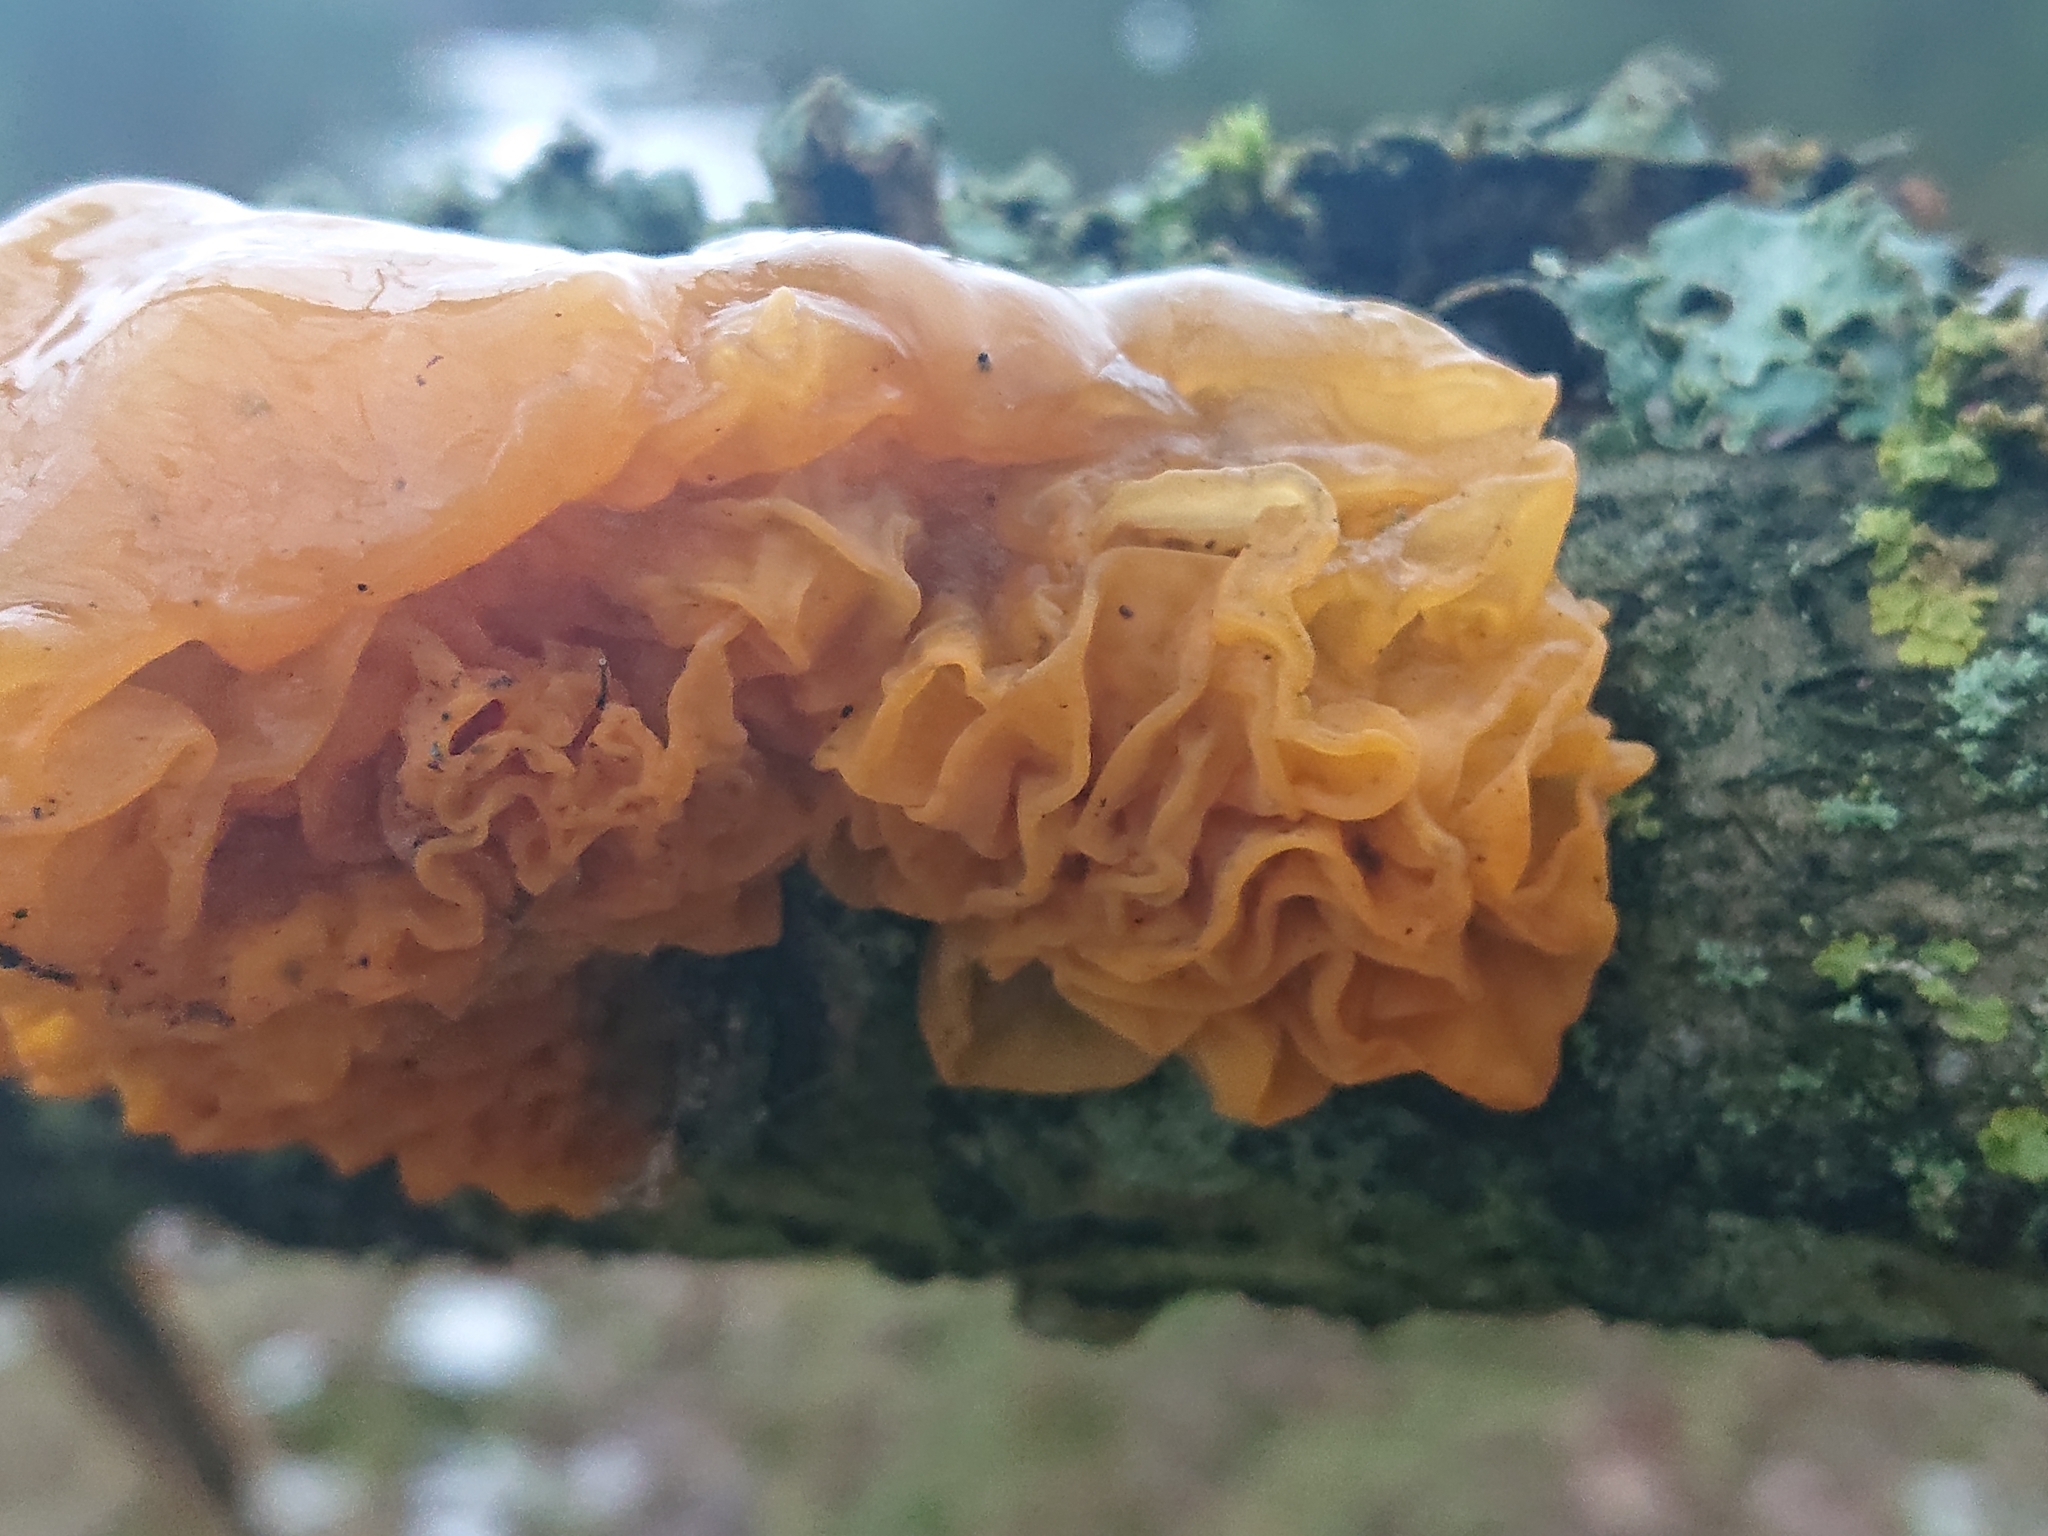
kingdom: Fungi
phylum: Basidiomycota
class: Tremellomycetes
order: Tremellales
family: Tremellaceae
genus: Tremella
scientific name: Tremella mesenterica
